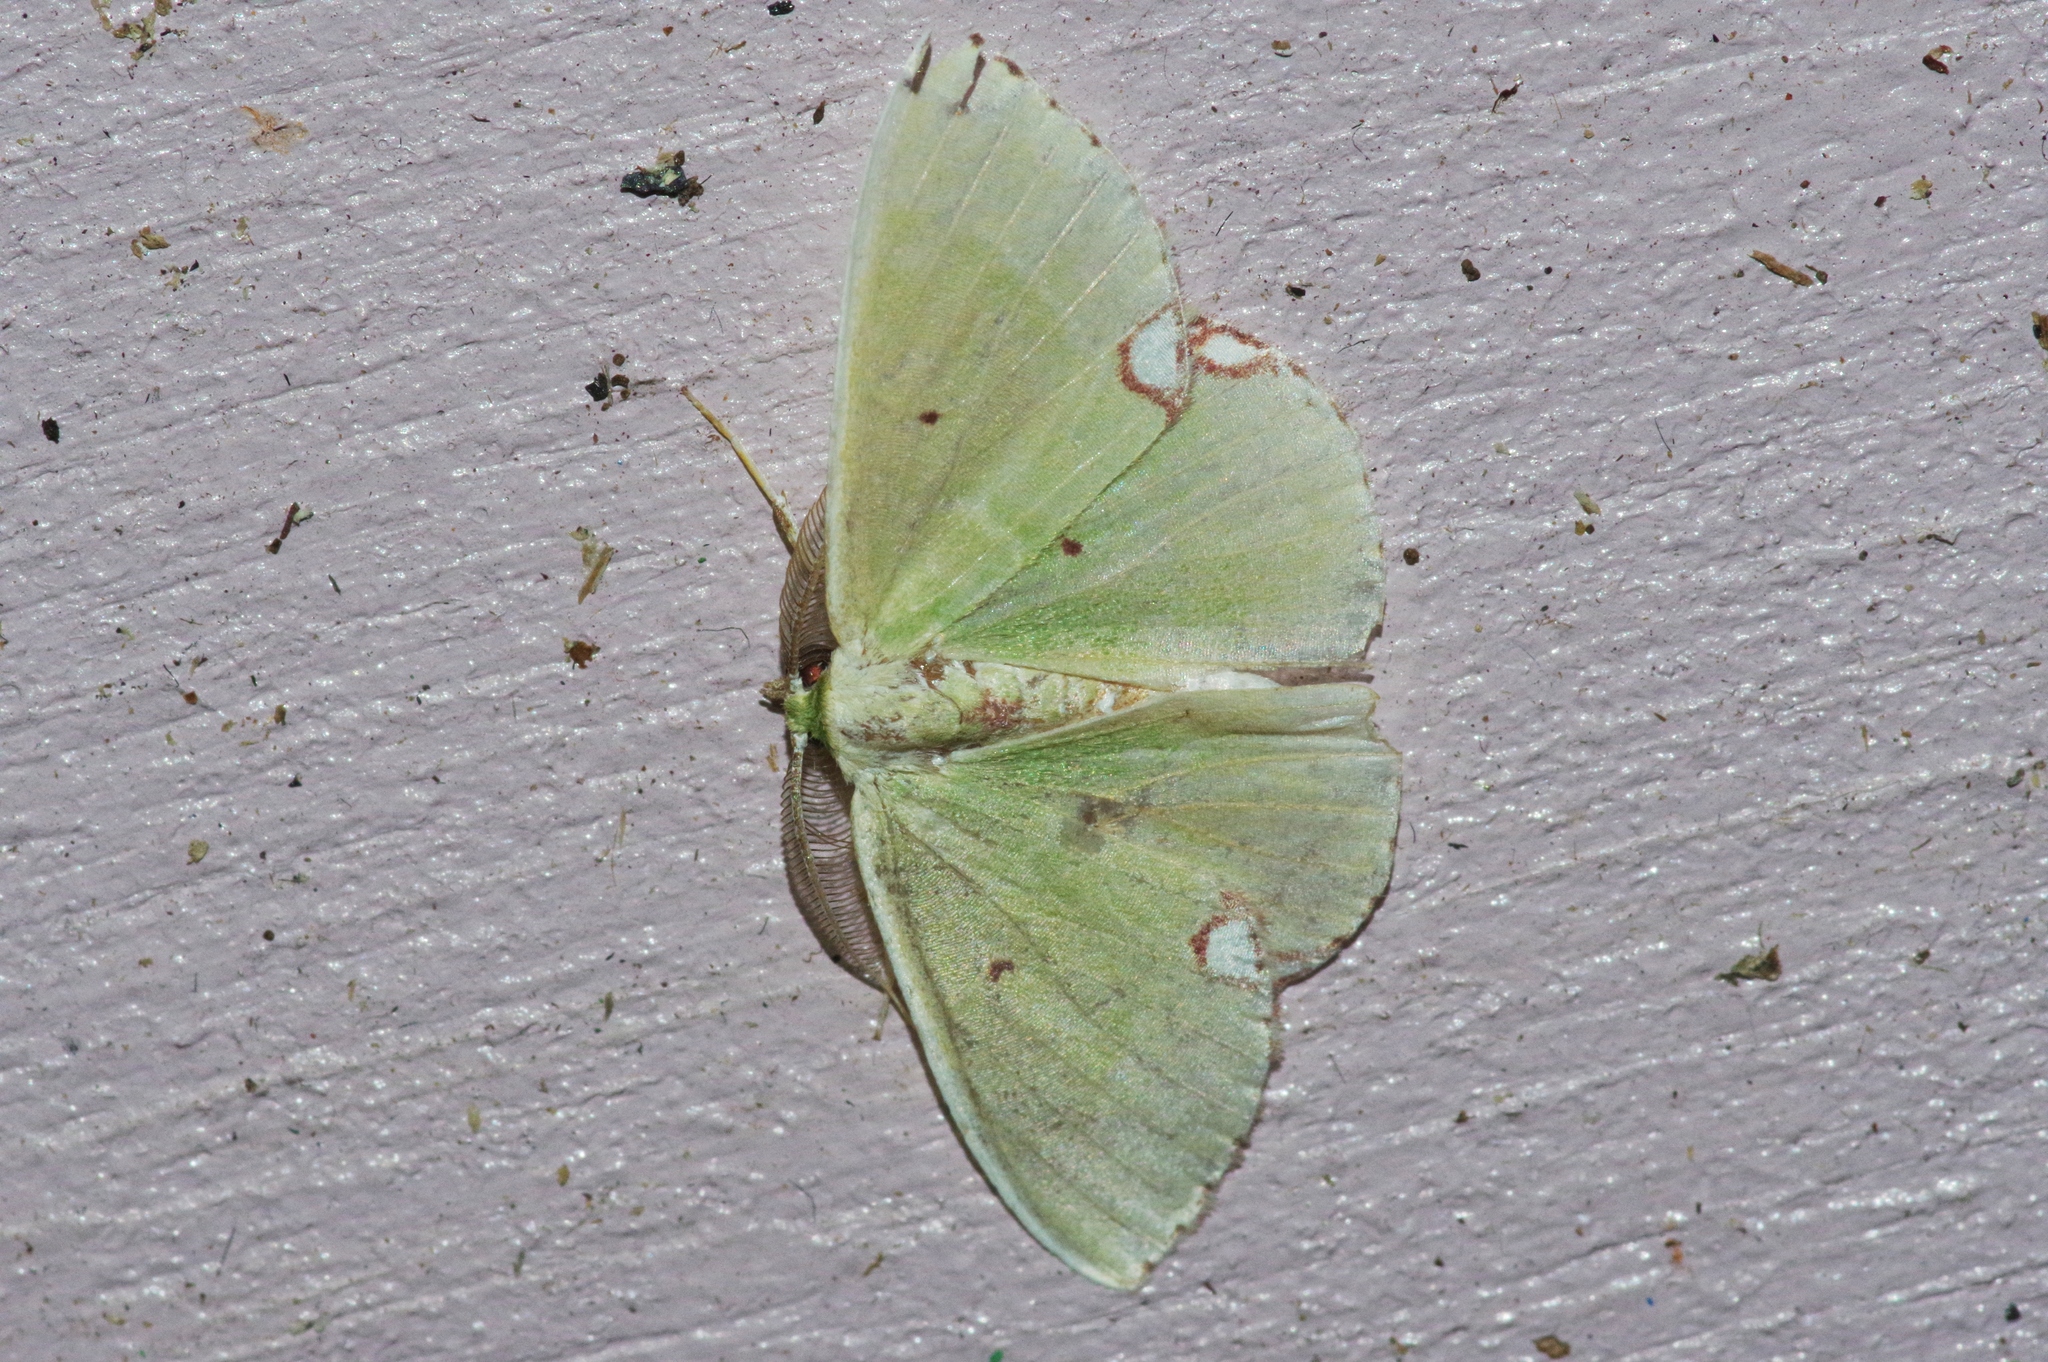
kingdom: Animalia
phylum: Arthropoda
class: Insecta
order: Lepidoptera
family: Geometridae
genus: Comibaena
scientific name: Comibaena procumbaria
